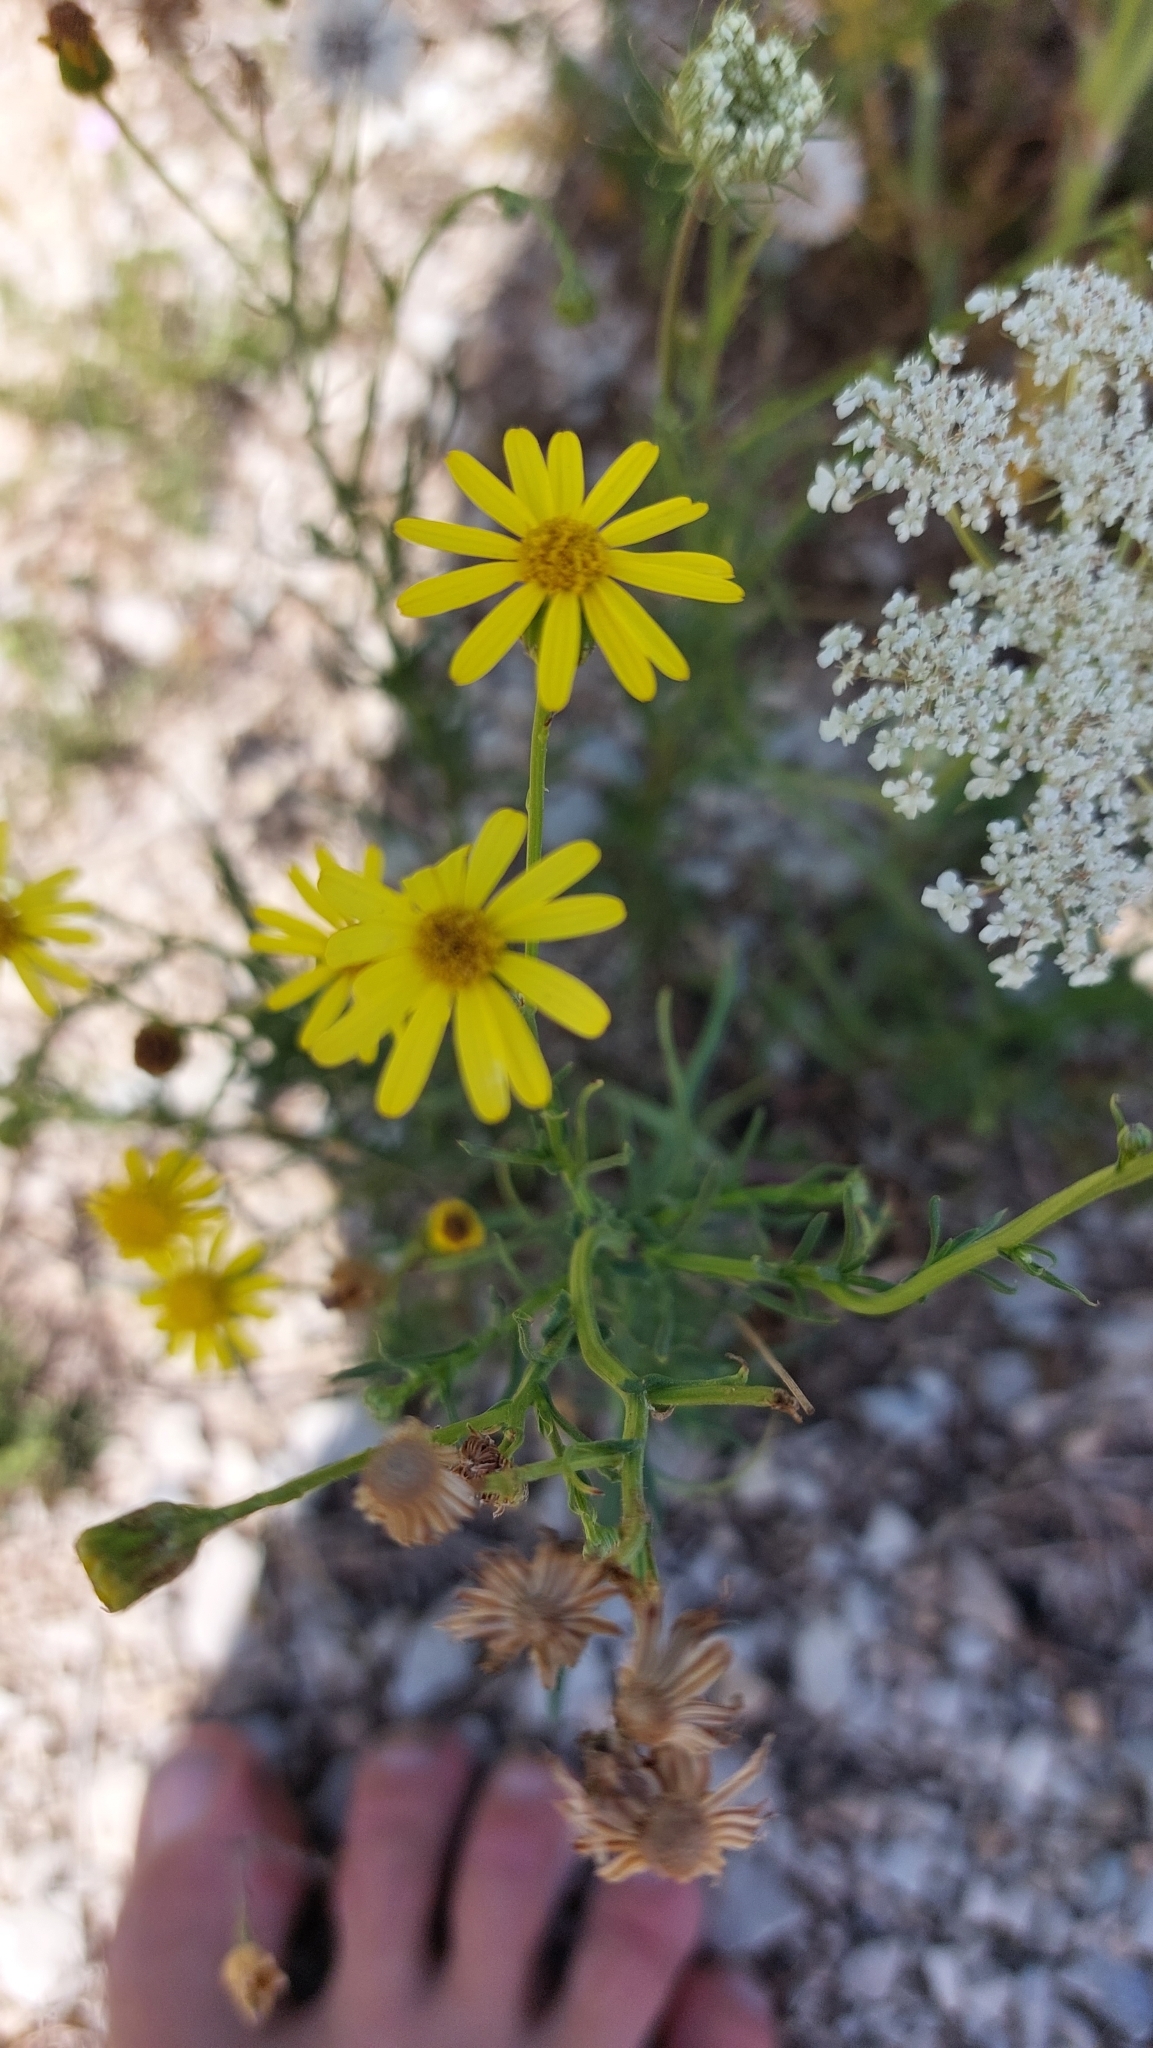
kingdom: Plantae
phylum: Tracheophyta
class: Magnoliopsida
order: Asterales
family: Asteraceae
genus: Senecio
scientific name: Senecio inaequidens
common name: Narrow-leaved ragwort
